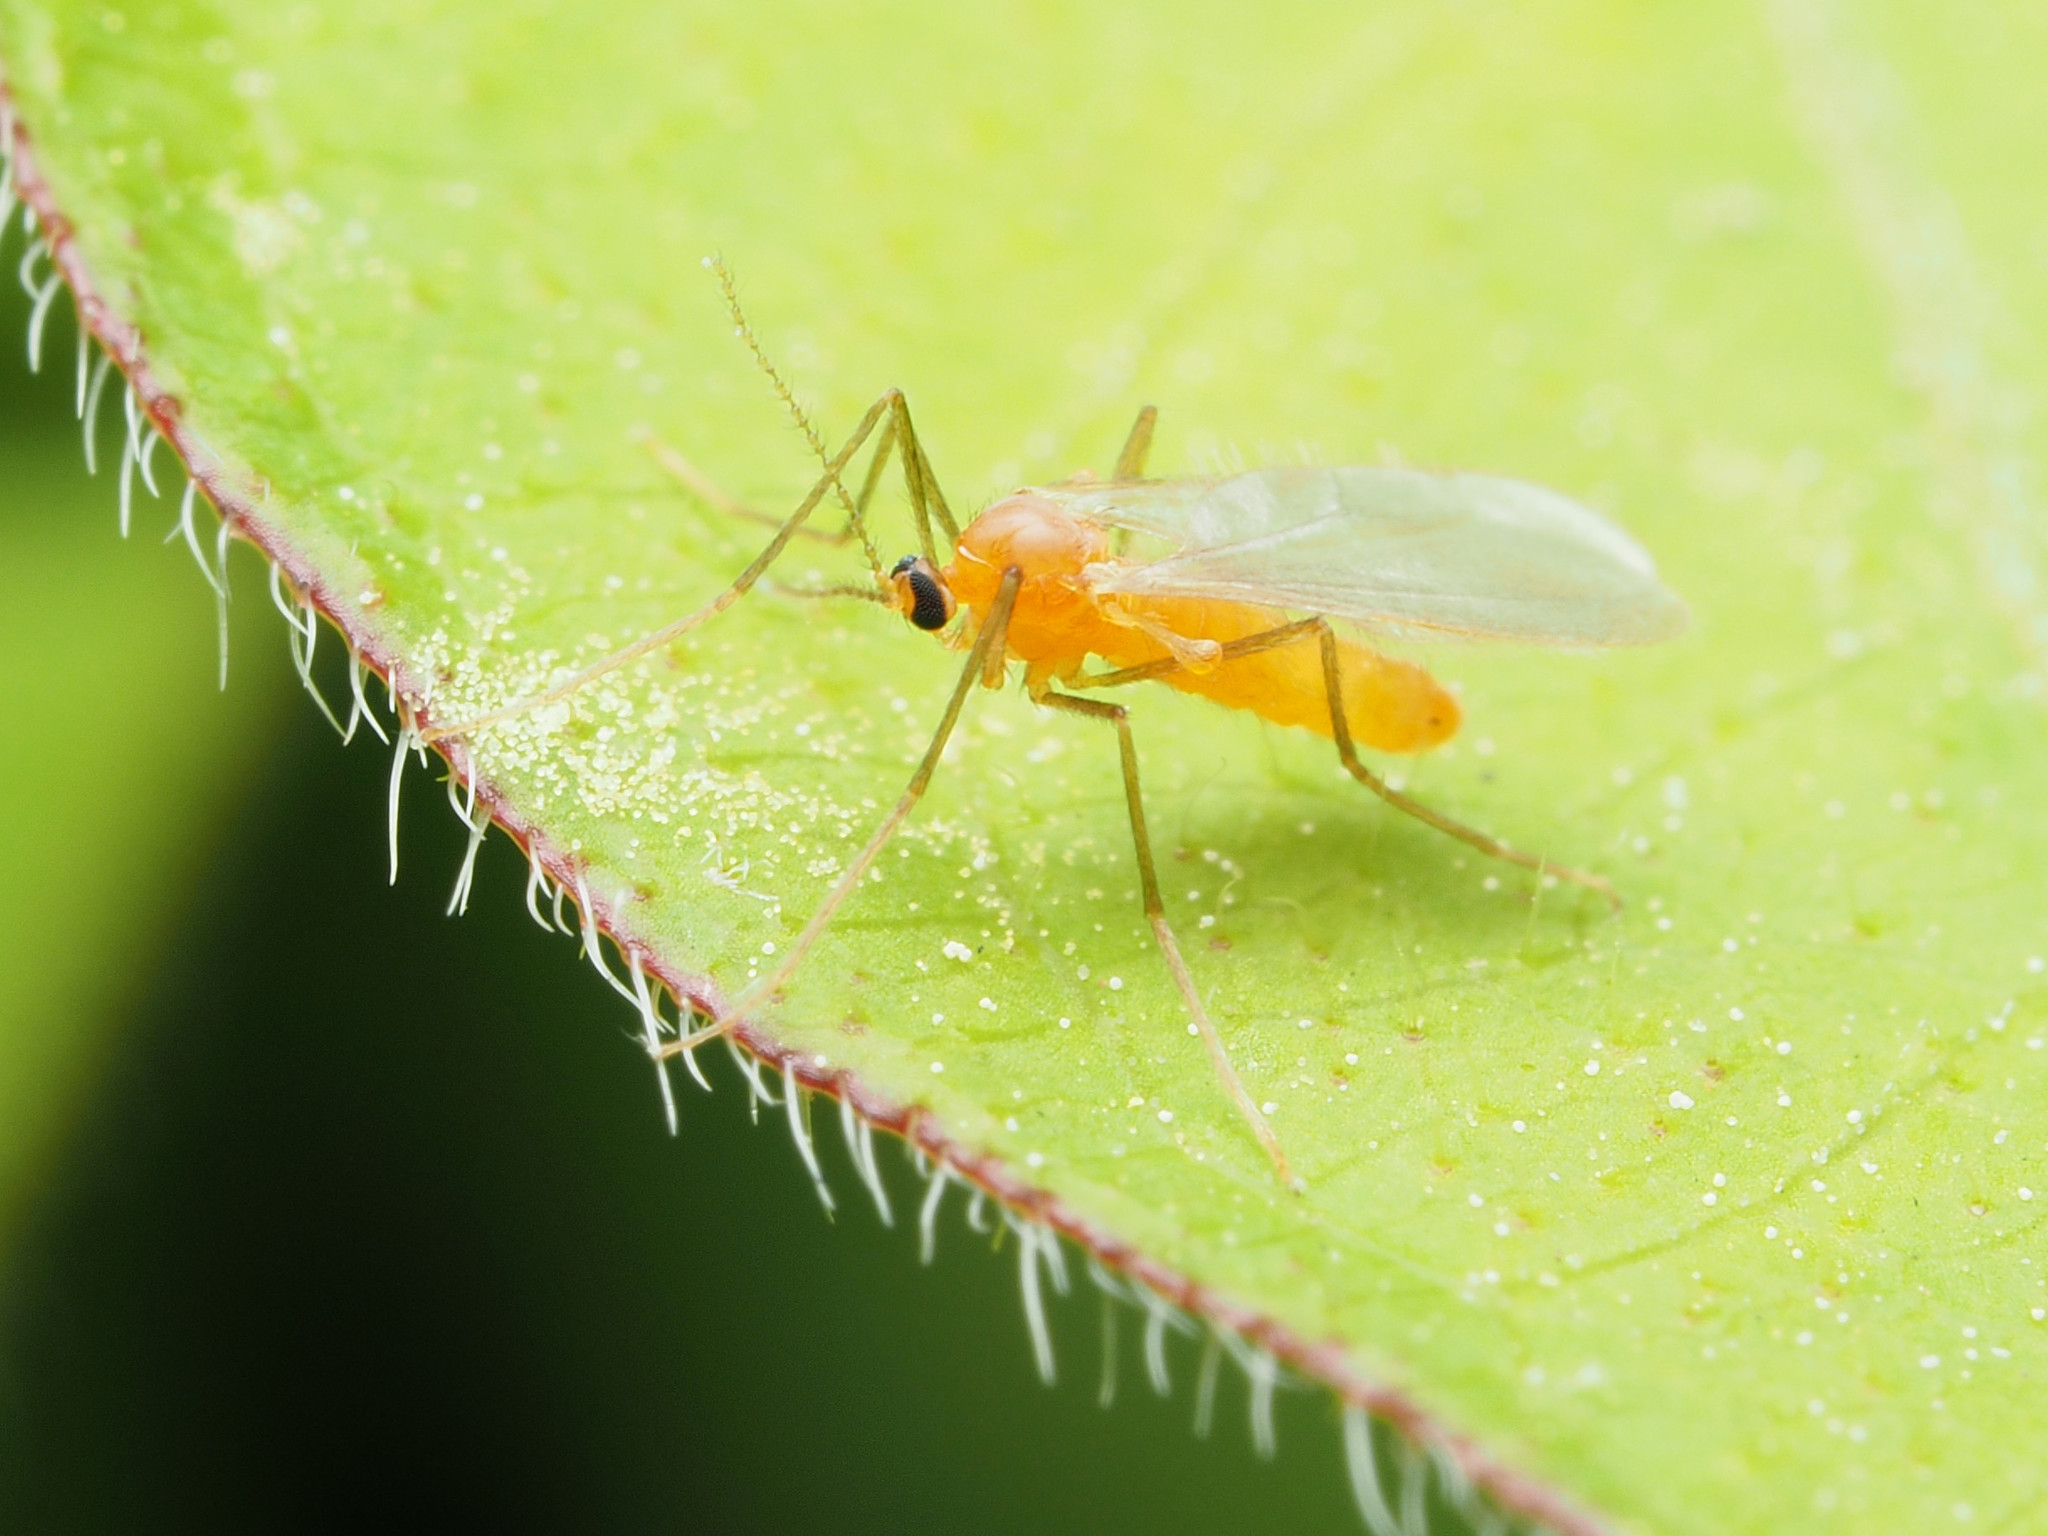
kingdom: Animalia
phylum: Arthropoda
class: Insecta
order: Diptera
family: Cecidomyiidae
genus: Monarthropalpus
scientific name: Monarthropalpus flavus
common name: Boxwood leafminer
